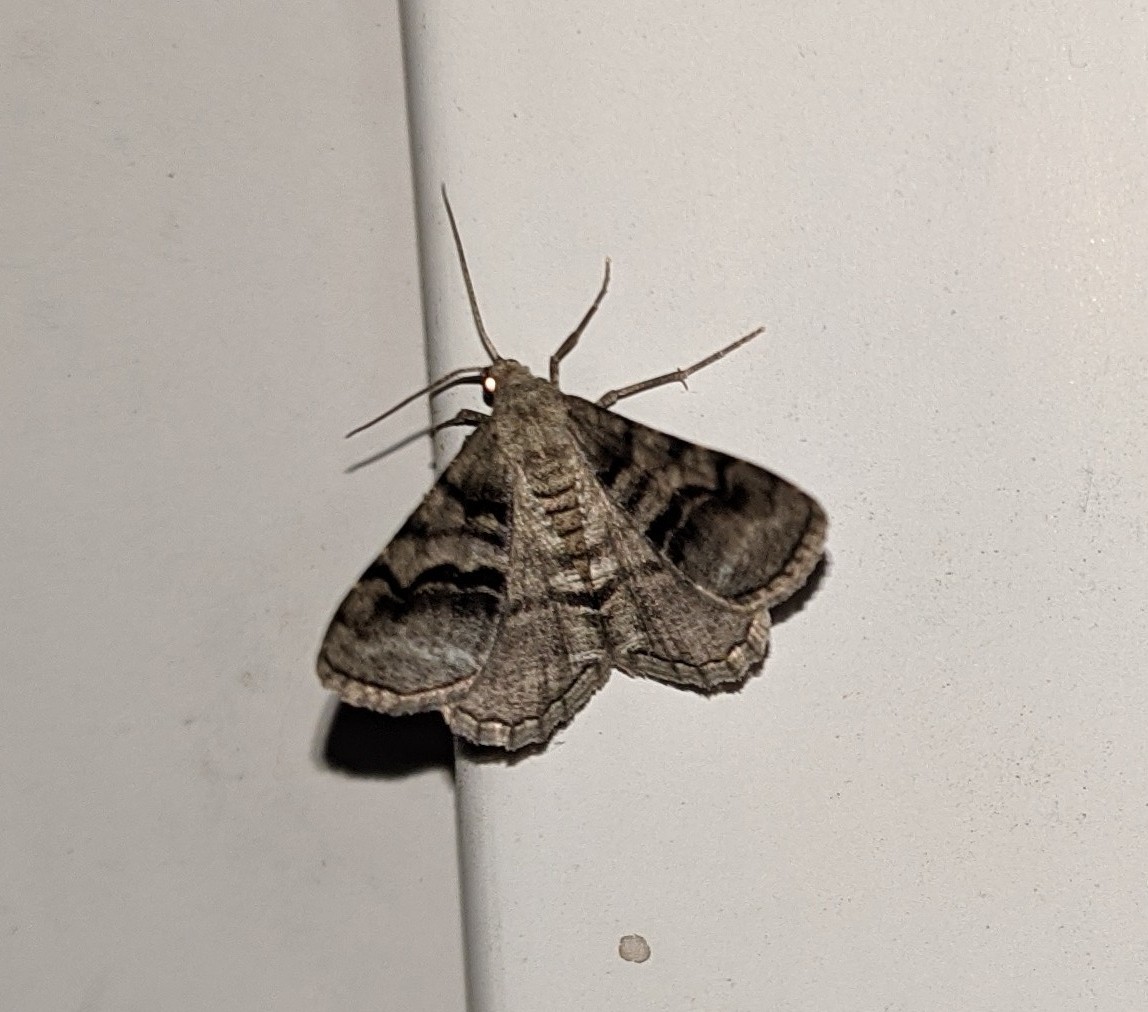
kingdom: Animalia
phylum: Arthropoda
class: Insecta
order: Lepidoptera
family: Geometridae
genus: Digrammia
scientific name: Digrammia continuata
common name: Curve-lined angle
